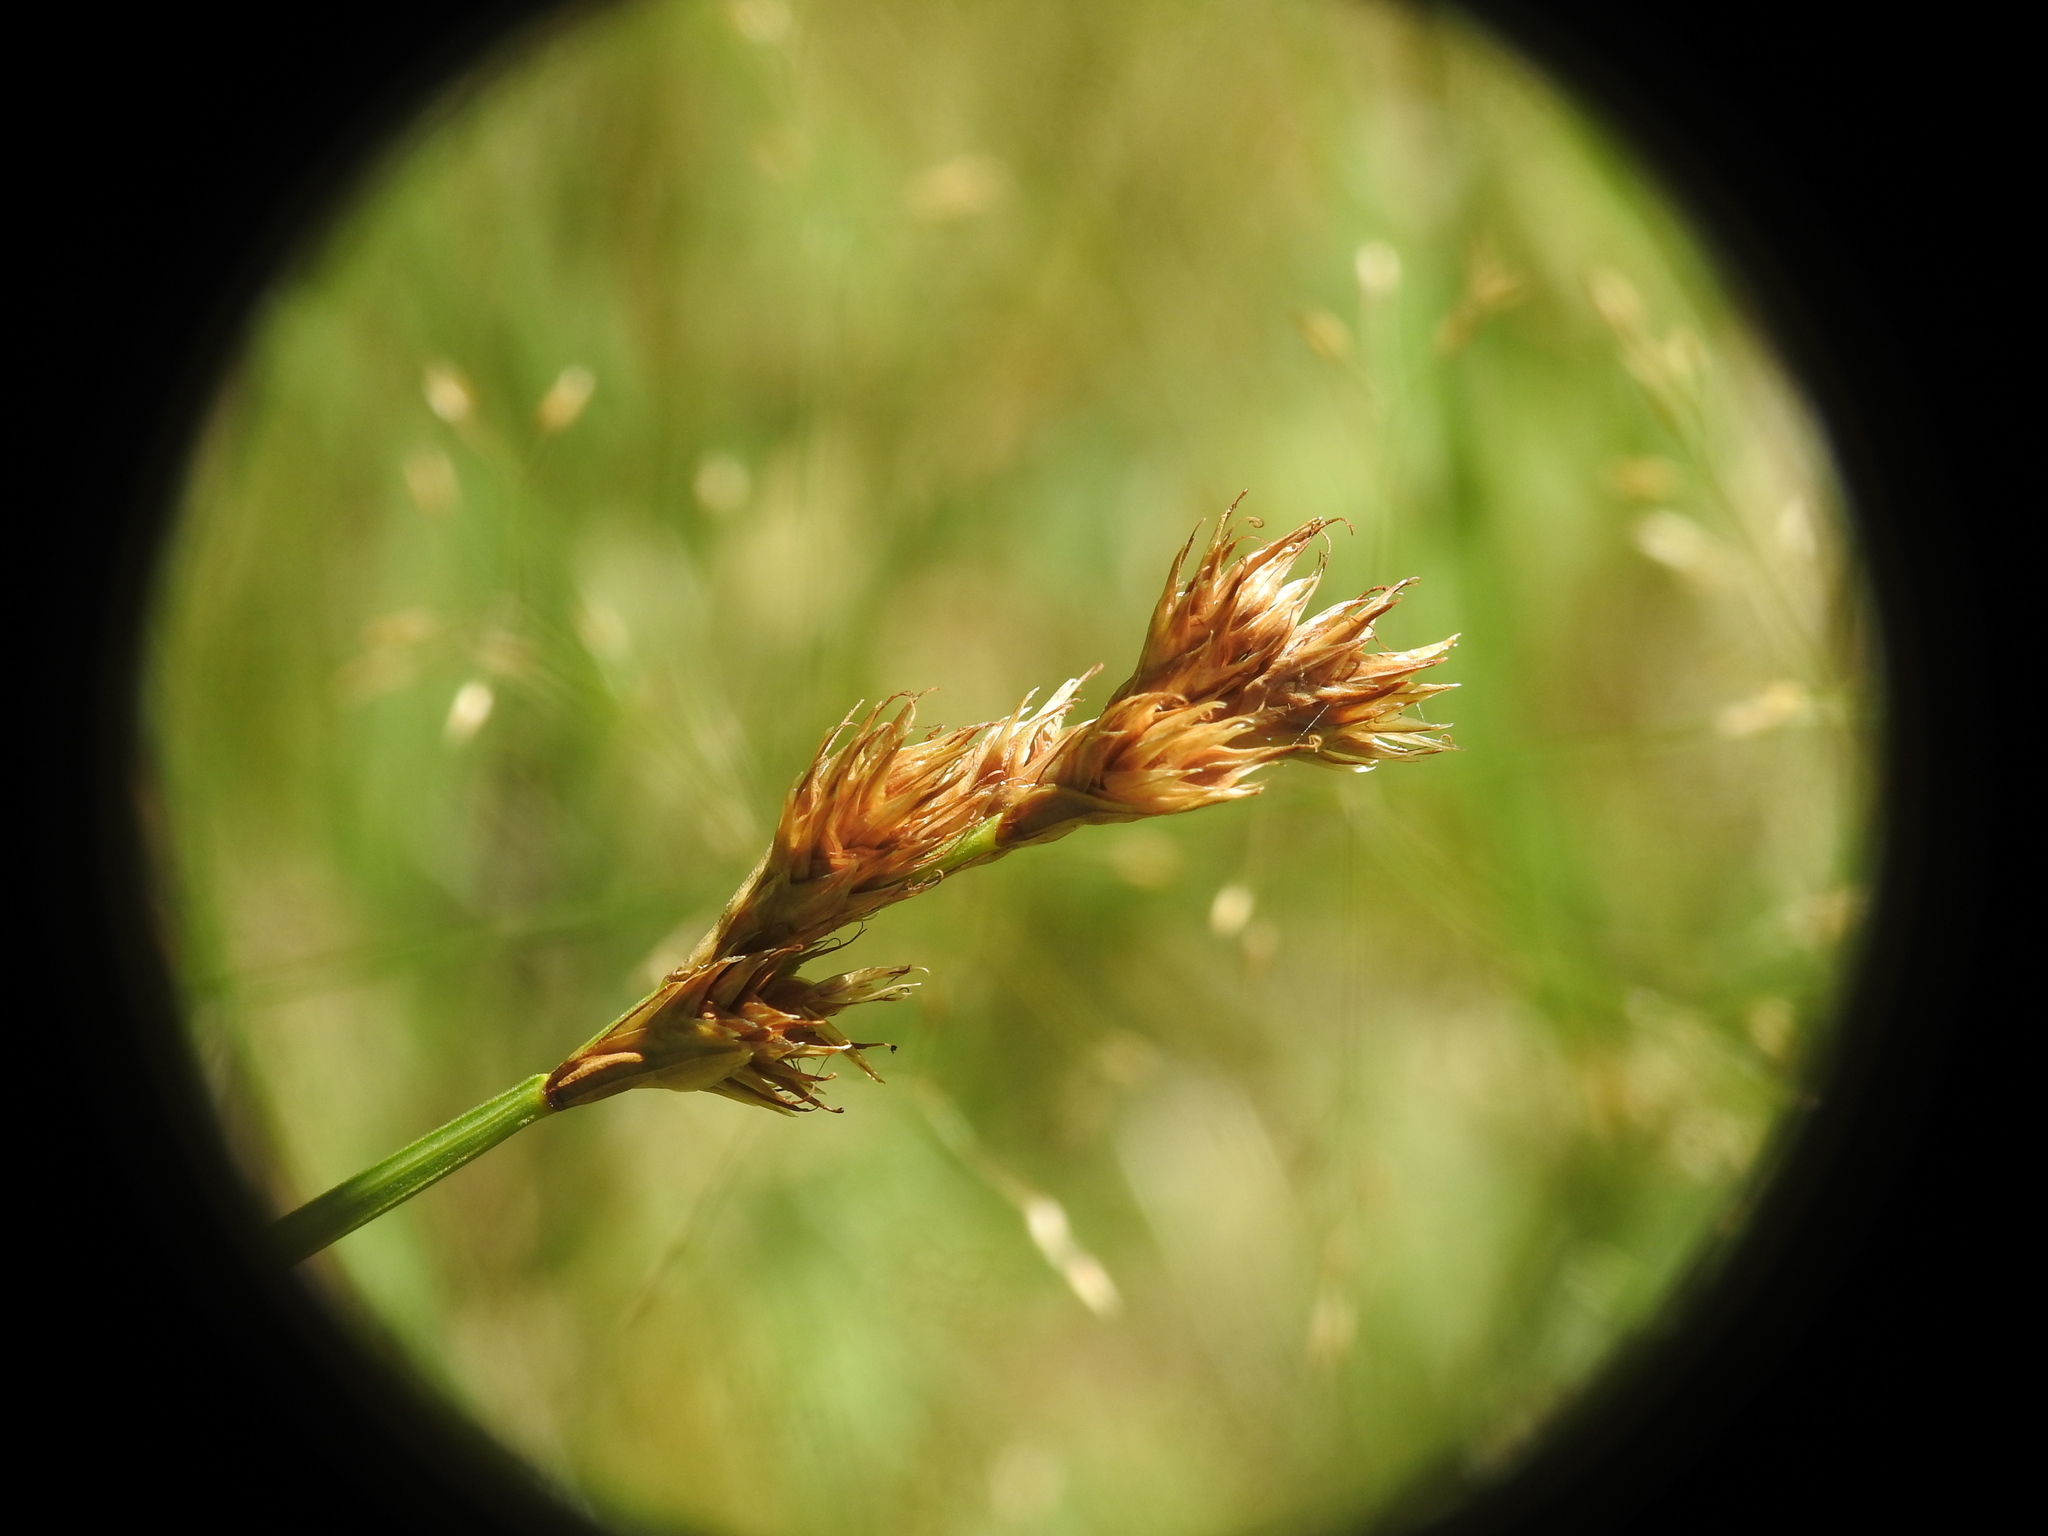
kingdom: Plantae
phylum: Tracheophyta
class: Liliopsida
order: Poales
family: Cyperaceae
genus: Carex
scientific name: Carex leporina
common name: Oval sedge
